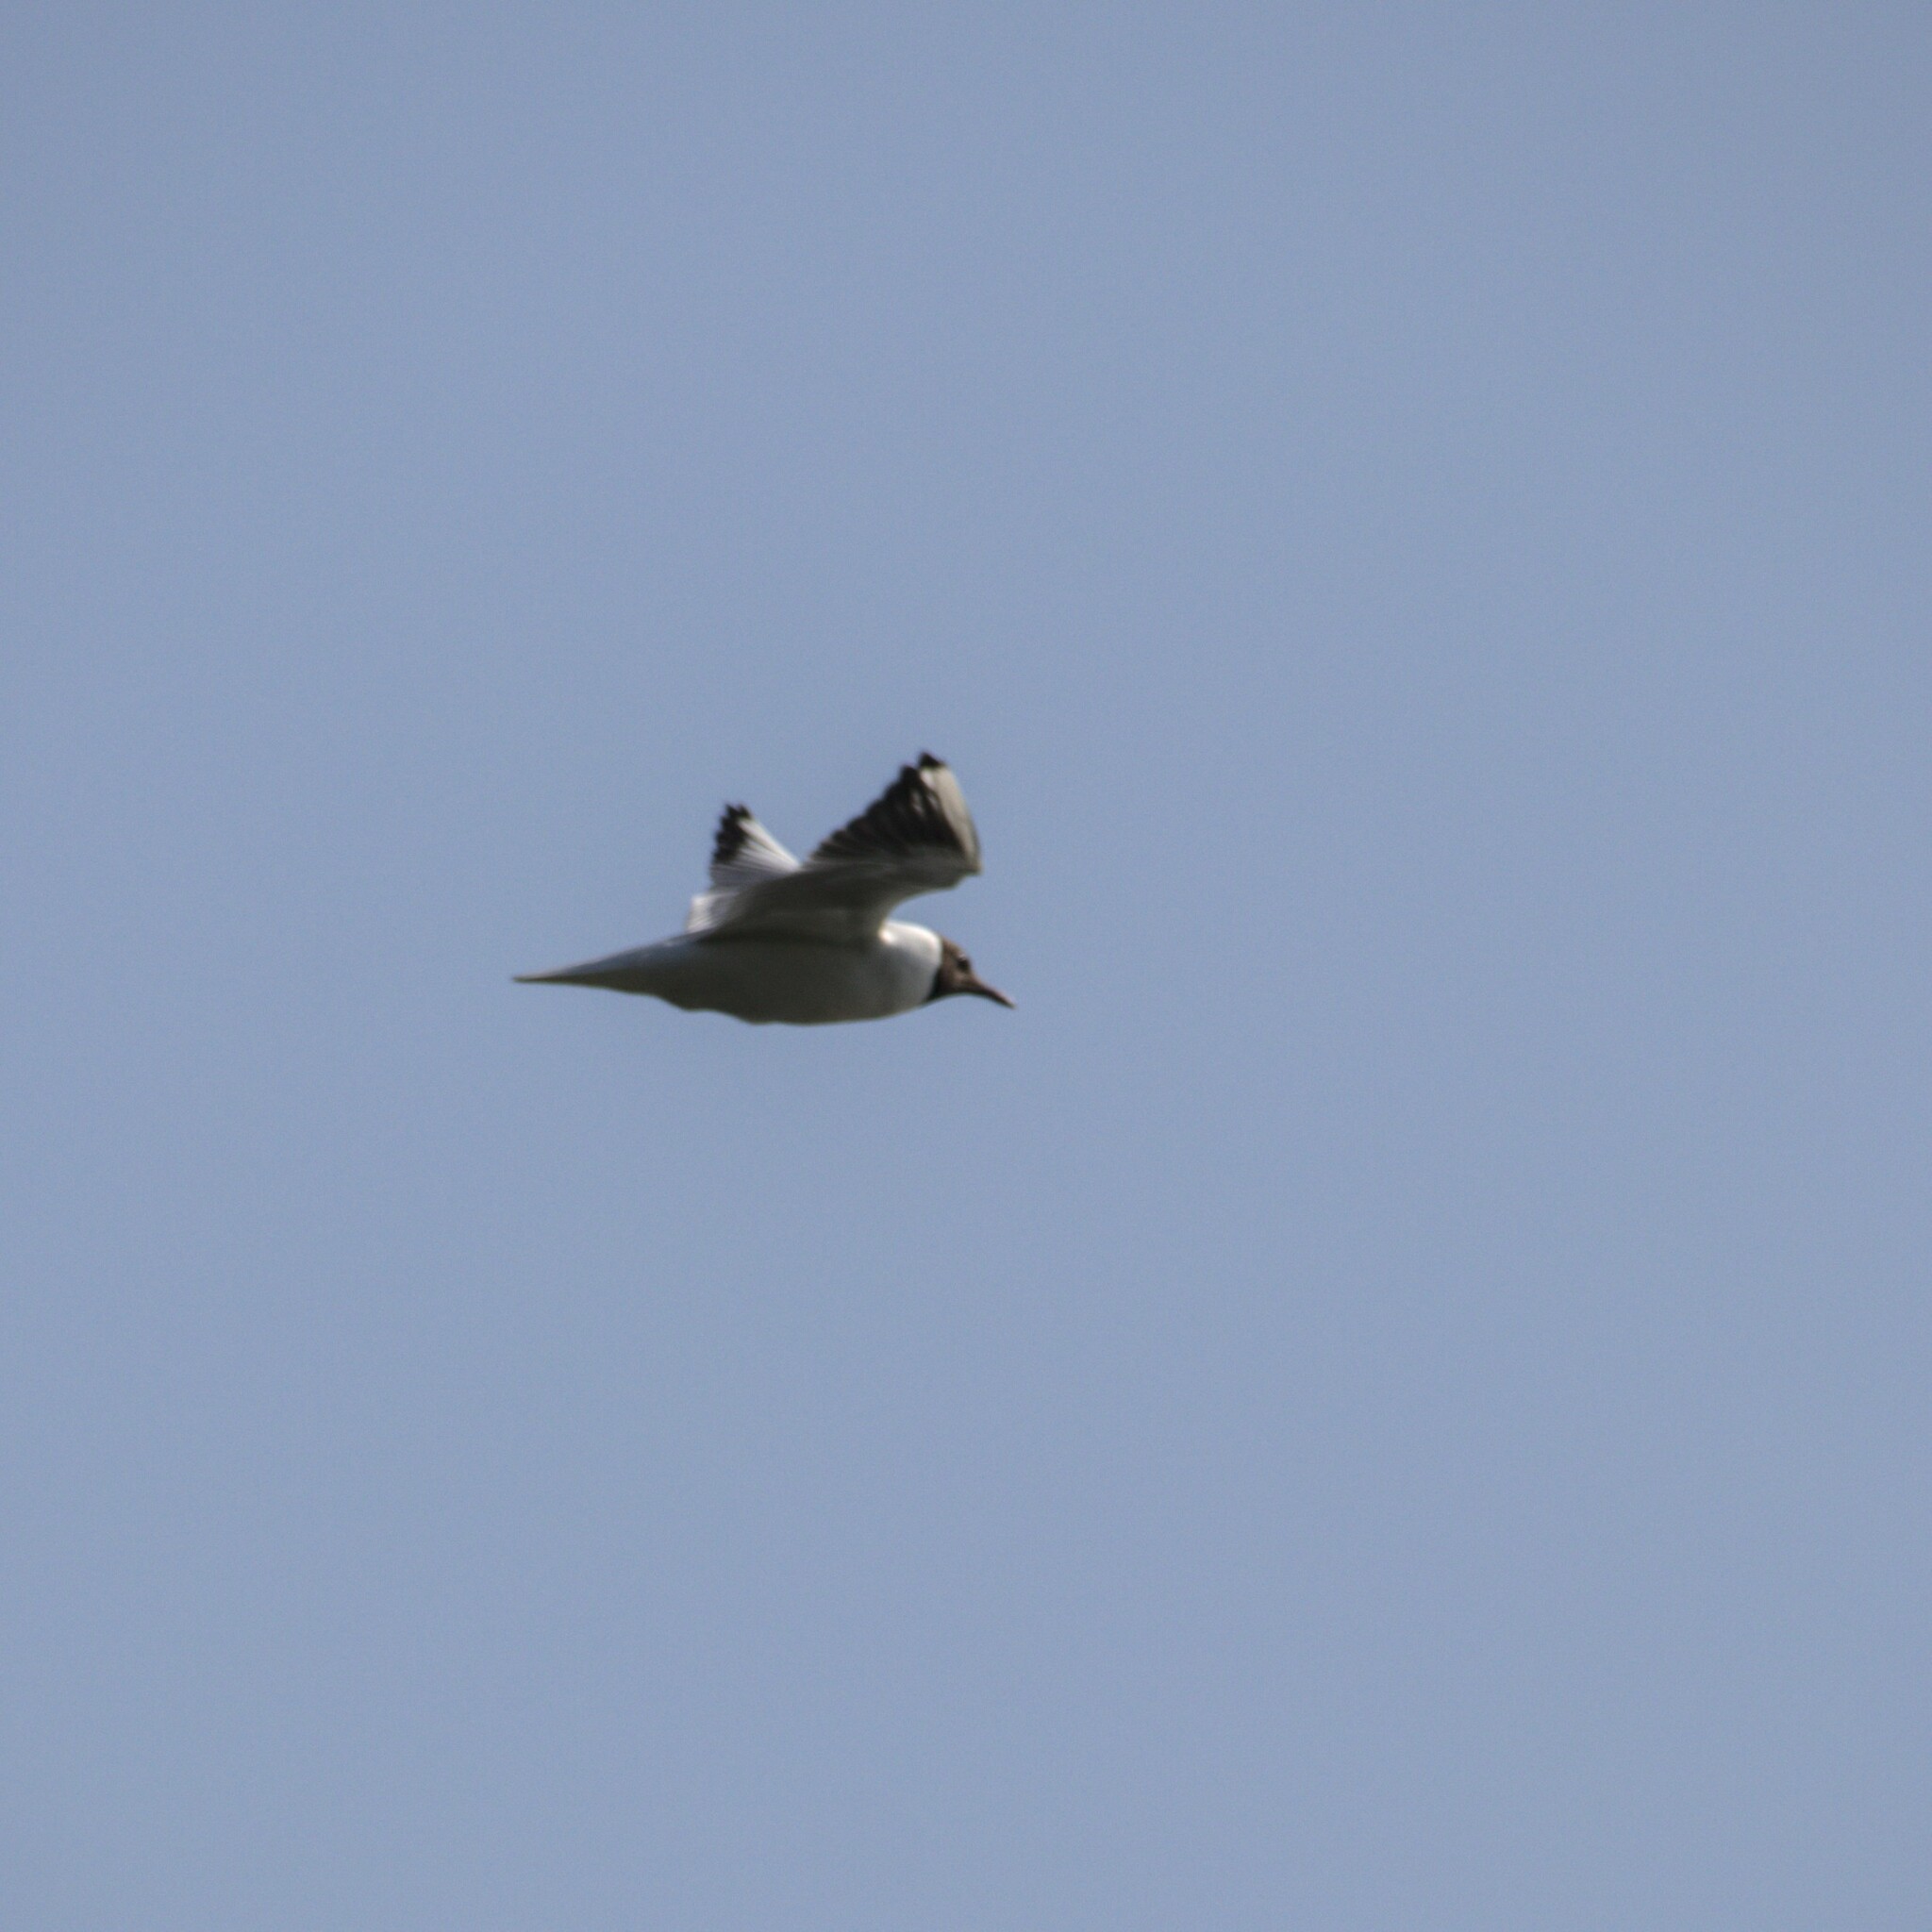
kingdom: Animalia
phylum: Chordata
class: Aves
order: Charadriiformes
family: Laridae
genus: Chroicocephalus
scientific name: Chroicocephalus ridibundus
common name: Black-headed gull
